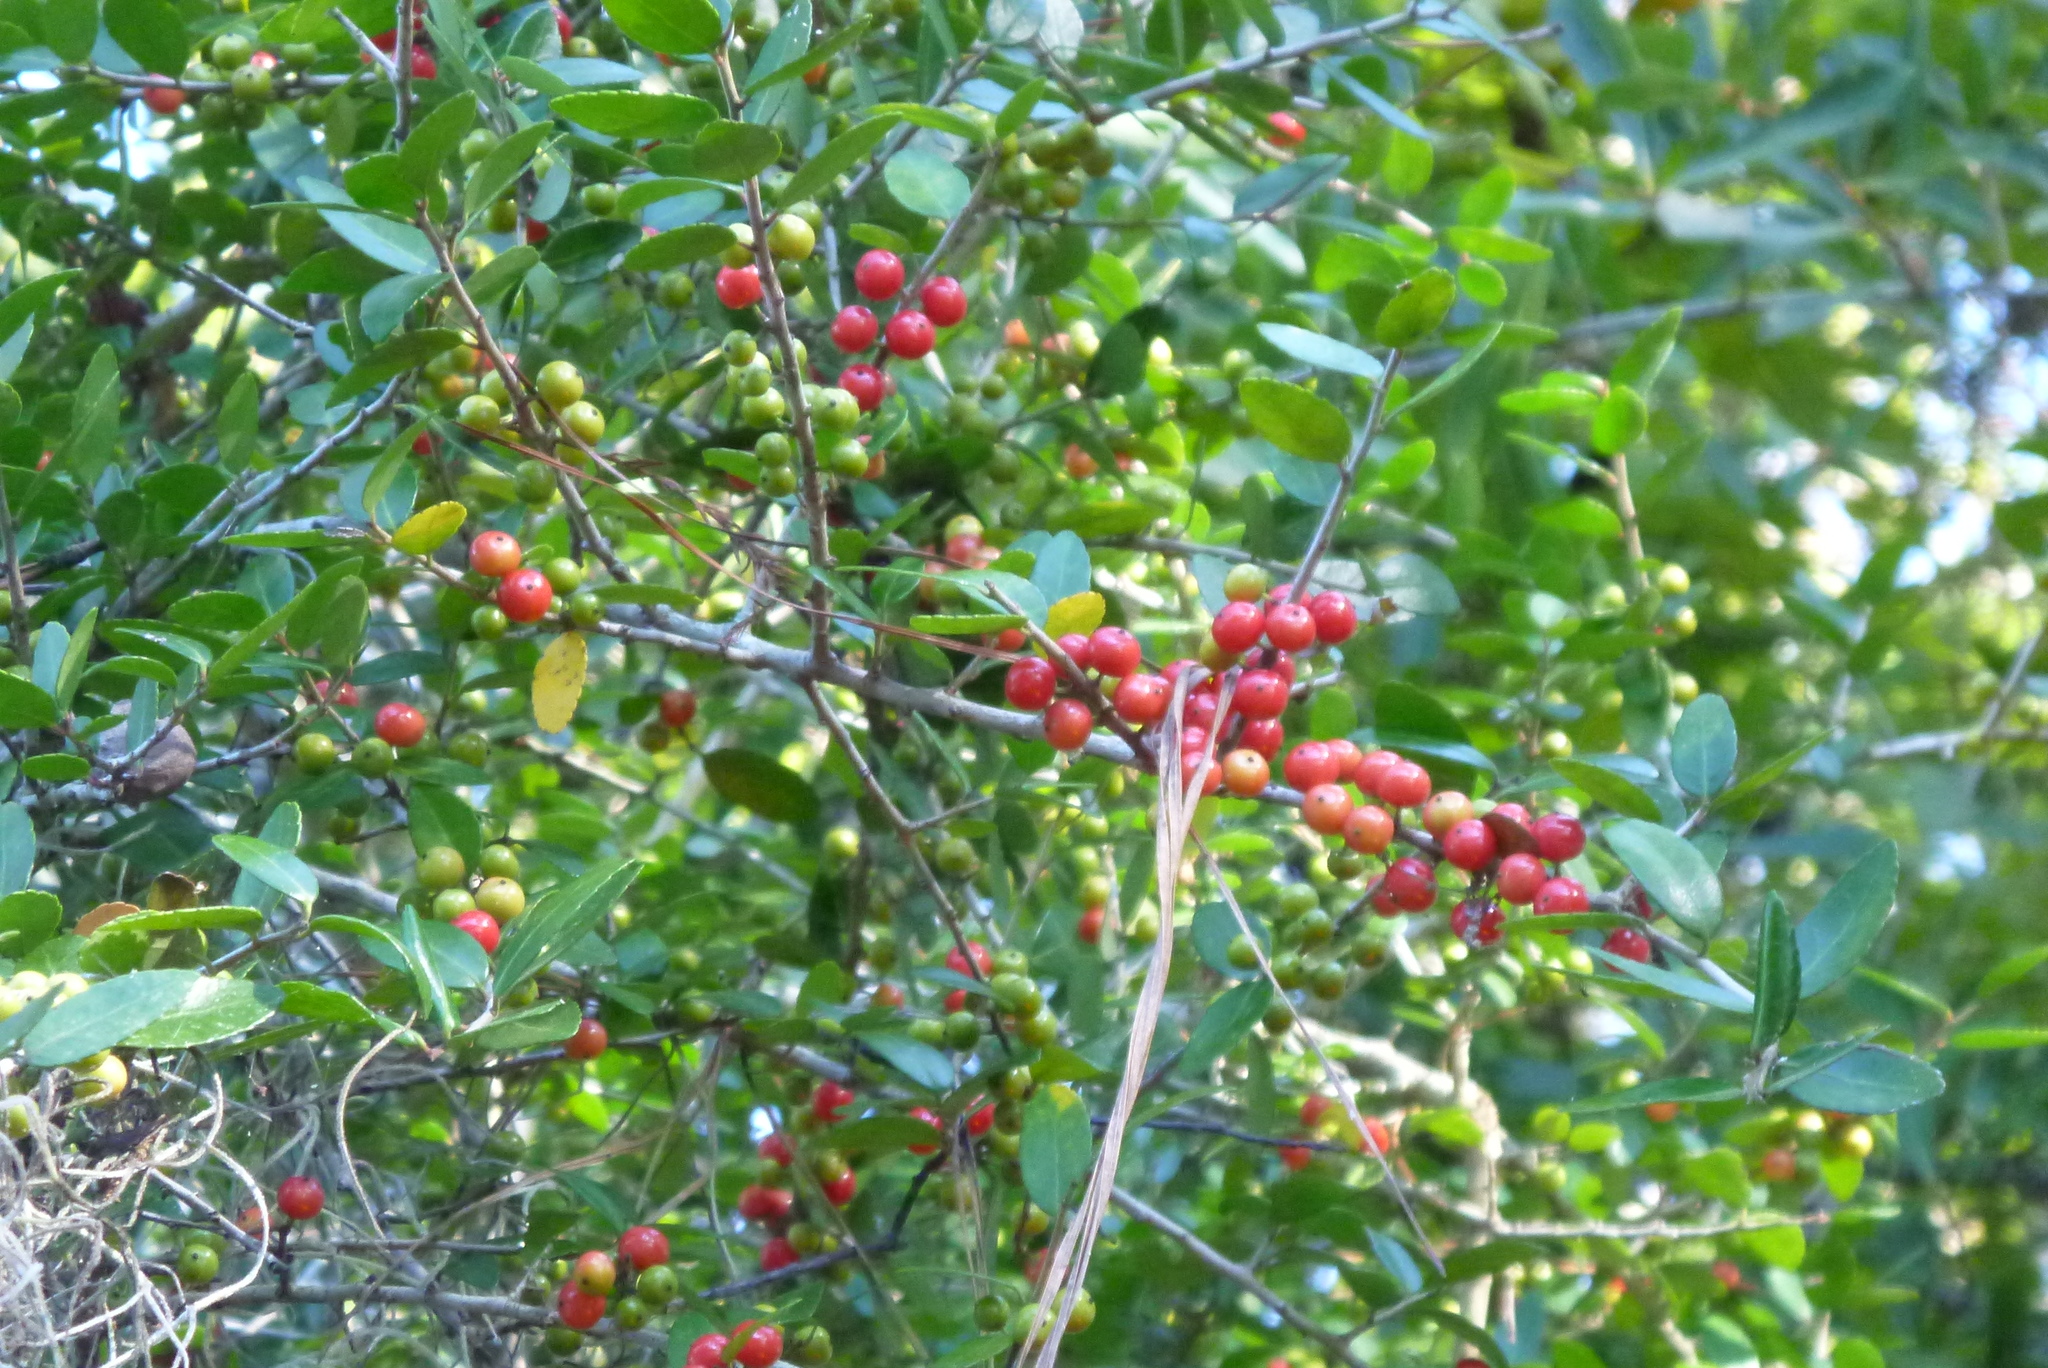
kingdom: Plantae
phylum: Tracheophyta
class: Magnoliopsida
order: Aquifoliales
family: Aquifoliaceae
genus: Ilex
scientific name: Ilex vomitoria
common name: Yaupon holly
